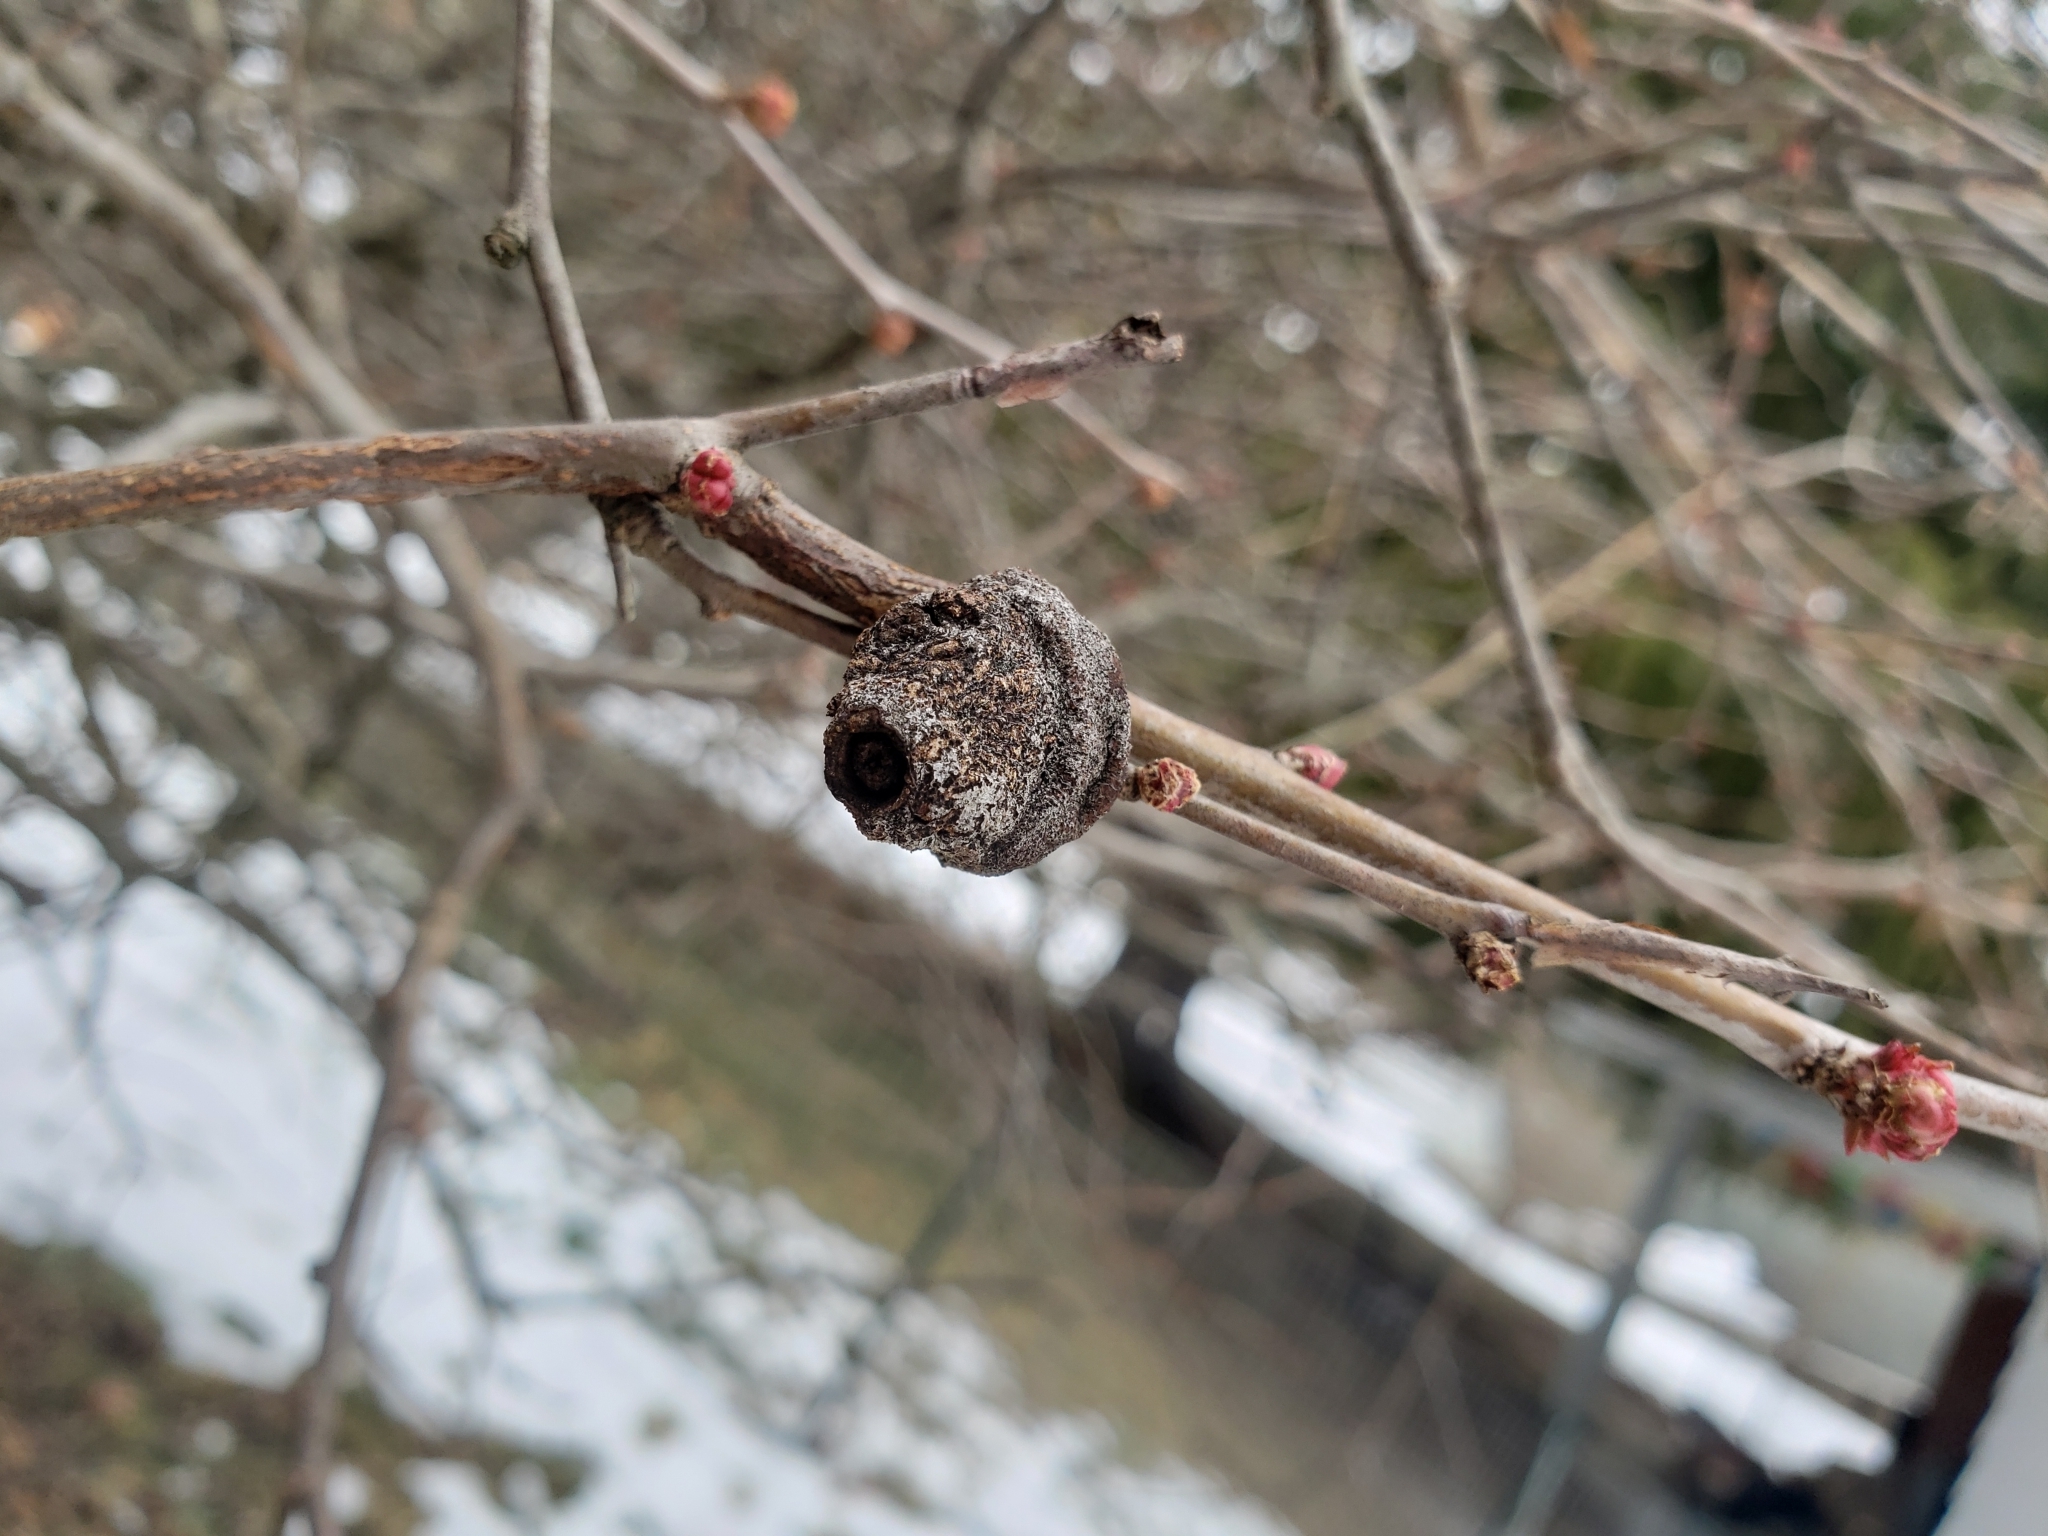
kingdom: Plantae
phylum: Tracheophyta
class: Magnoliopsida
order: Rosales
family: Rosaceae
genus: Chaenomeles
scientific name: Chaenomeles speciosa
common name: Japanese quince
